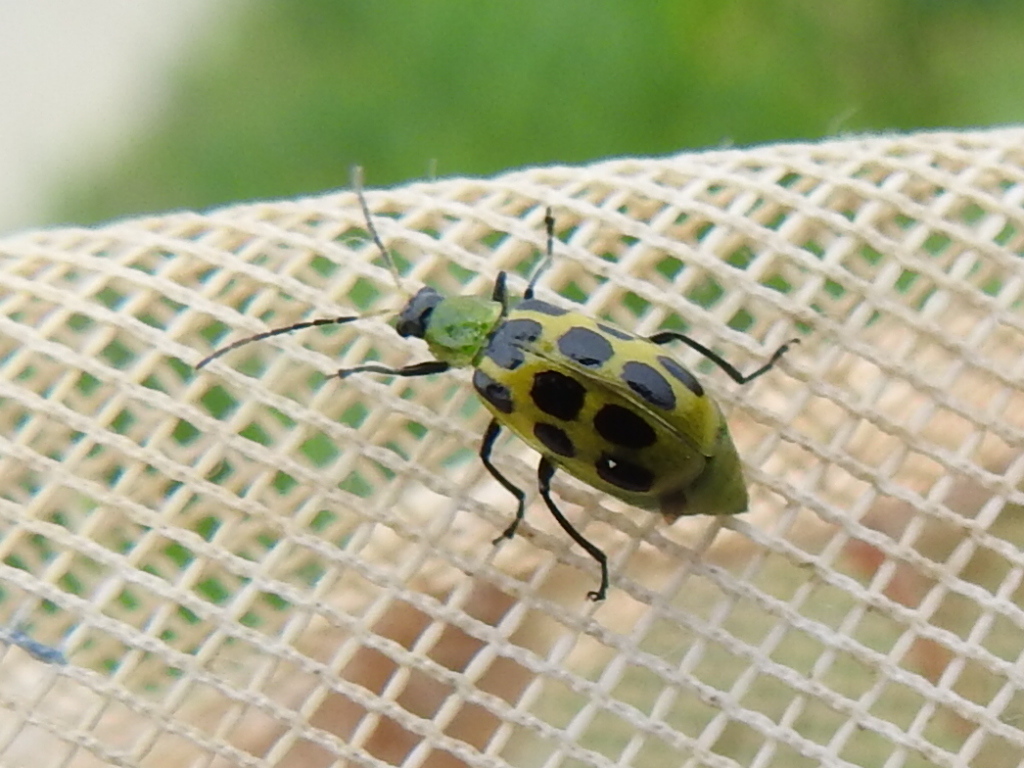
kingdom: Animalia
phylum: Arthropoda
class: Insecta
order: Coleoptera
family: Chrysomelidae
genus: Diabrotica
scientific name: Diabrotica undecimpunctata
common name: Spotted cucumber beetle
